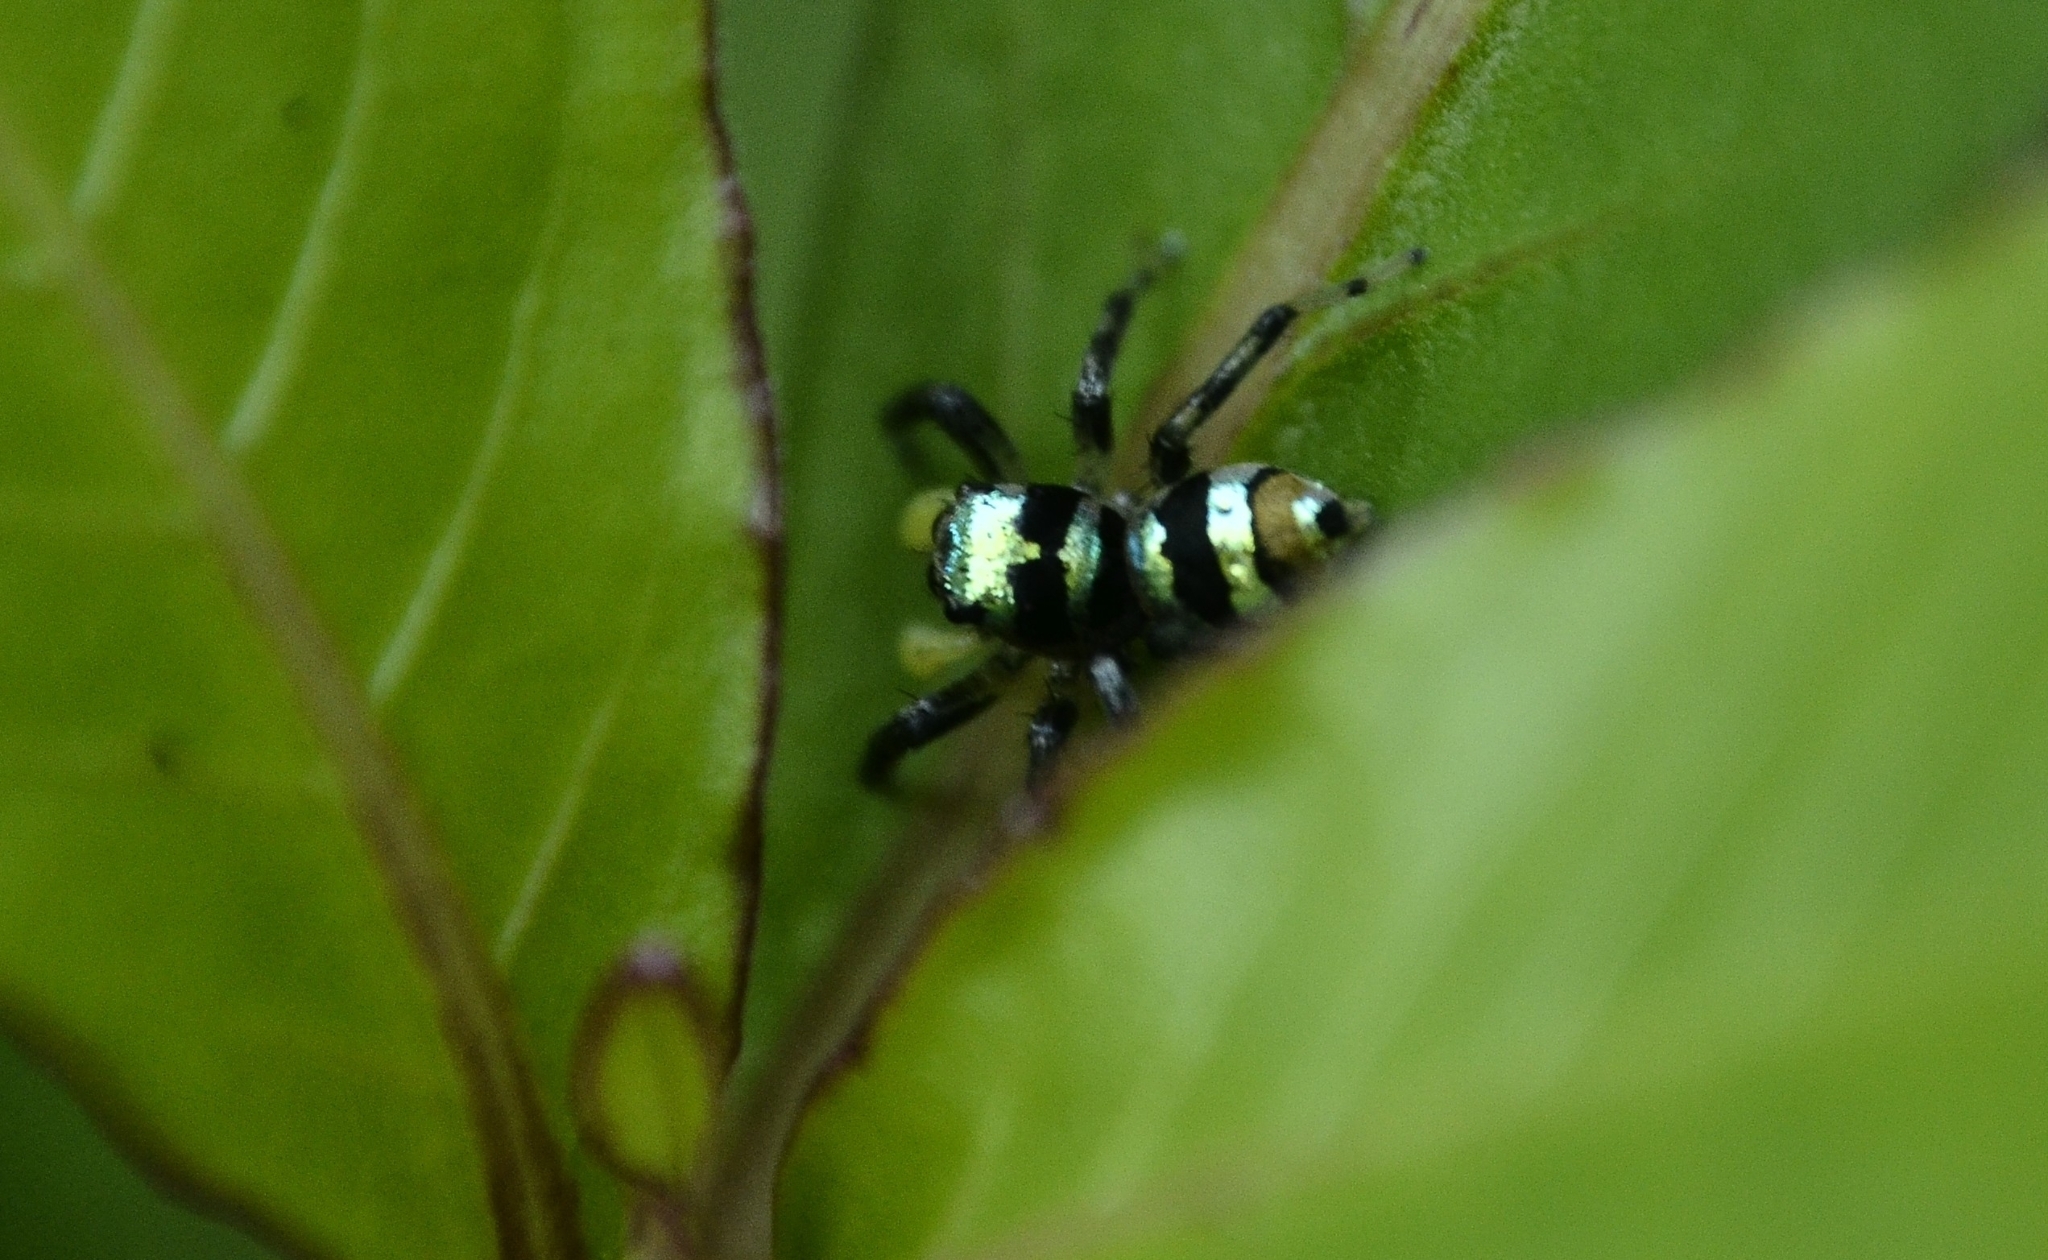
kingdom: Animalia
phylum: Arthropoda
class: Arachnida
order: Araneae
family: Salticidae
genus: Phintella
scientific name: Phintella vittata
